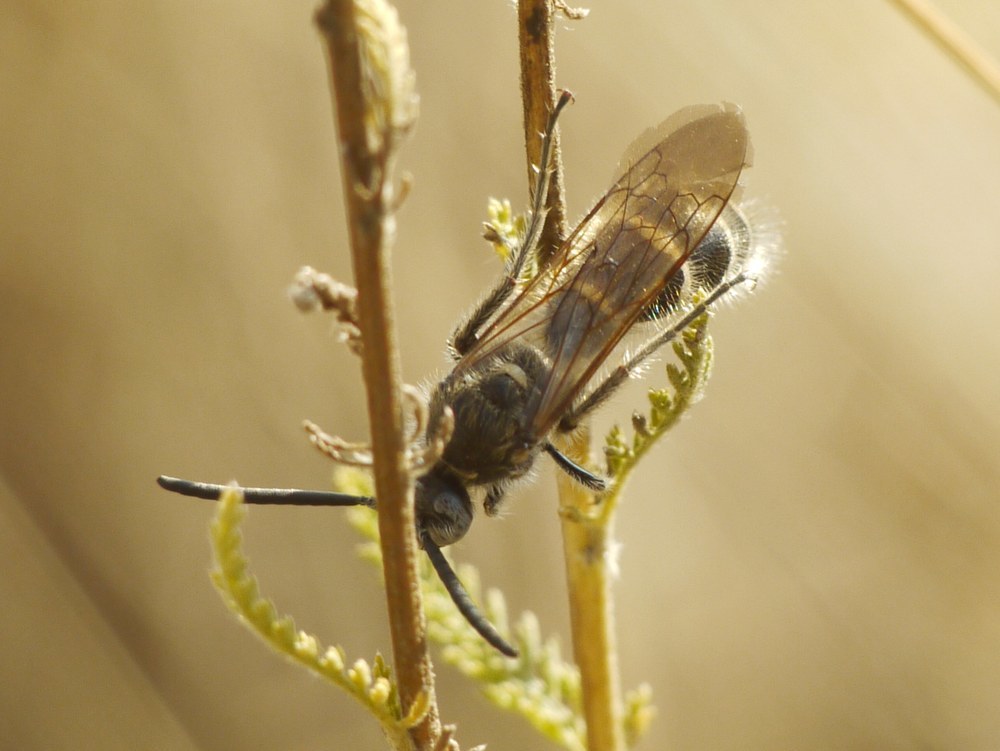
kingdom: Animalia
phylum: Arthropoda
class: Insecta
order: Hymenoptera
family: Scoliidae
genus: Colpa
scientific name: Colpa quinquecincta
